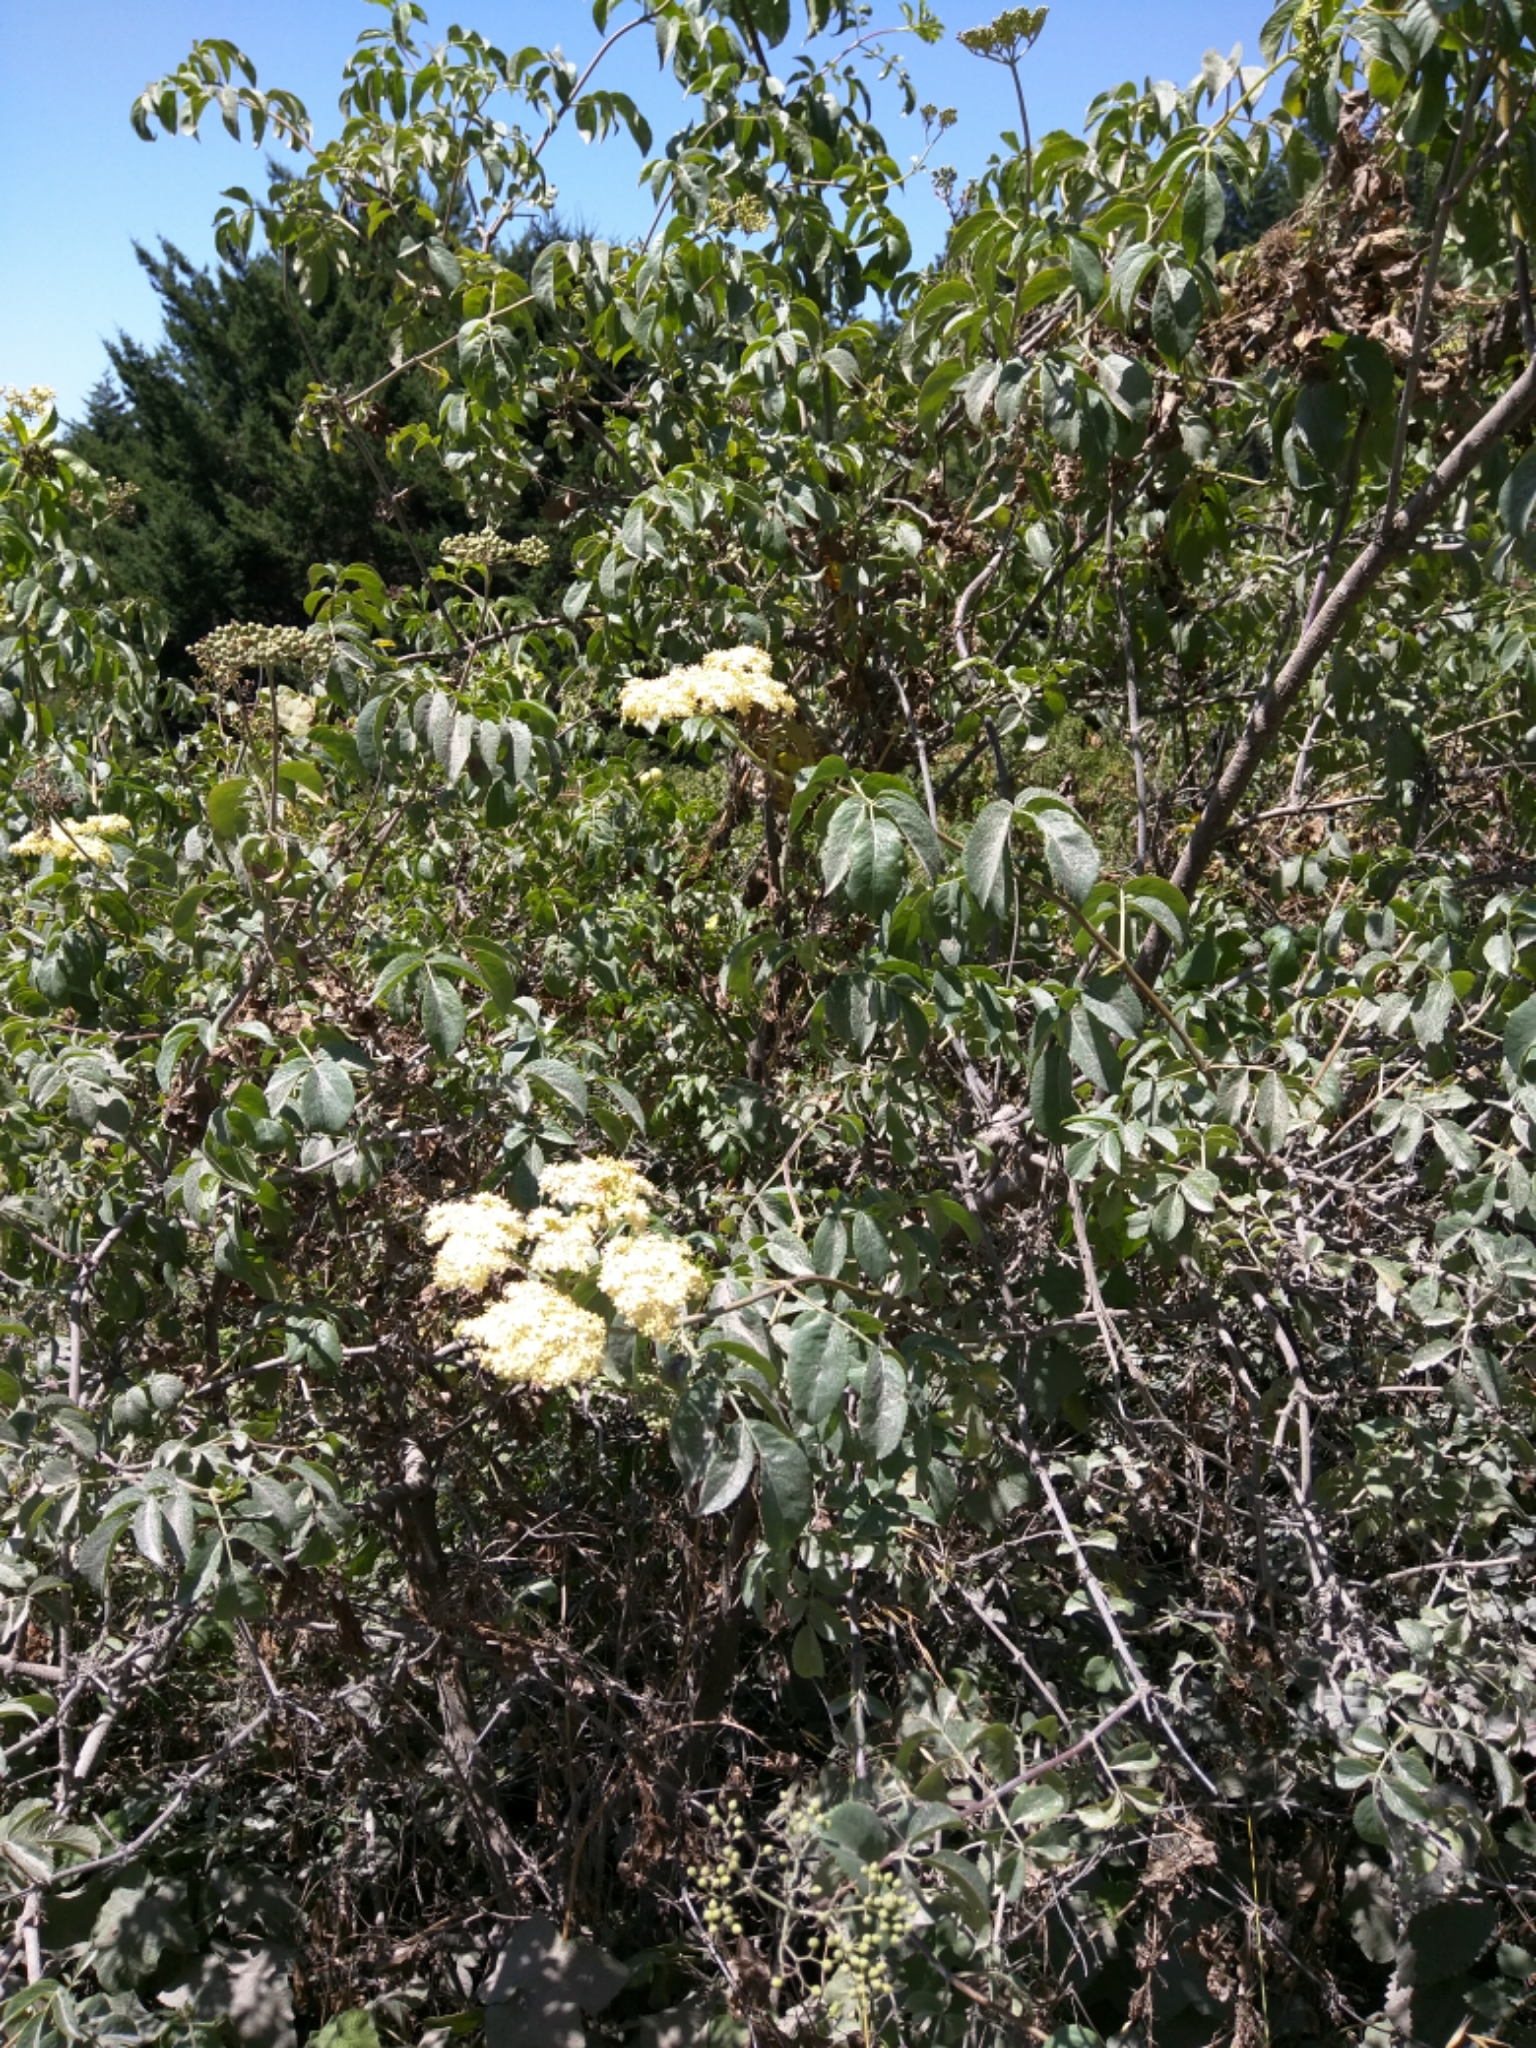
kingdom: Plantae
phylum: Tracheophyta
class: Magnoliopsida
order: Dipsacales
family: Viburnaceae
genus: Sambucus
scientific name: Sambucus cerulea
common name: Blue elder
